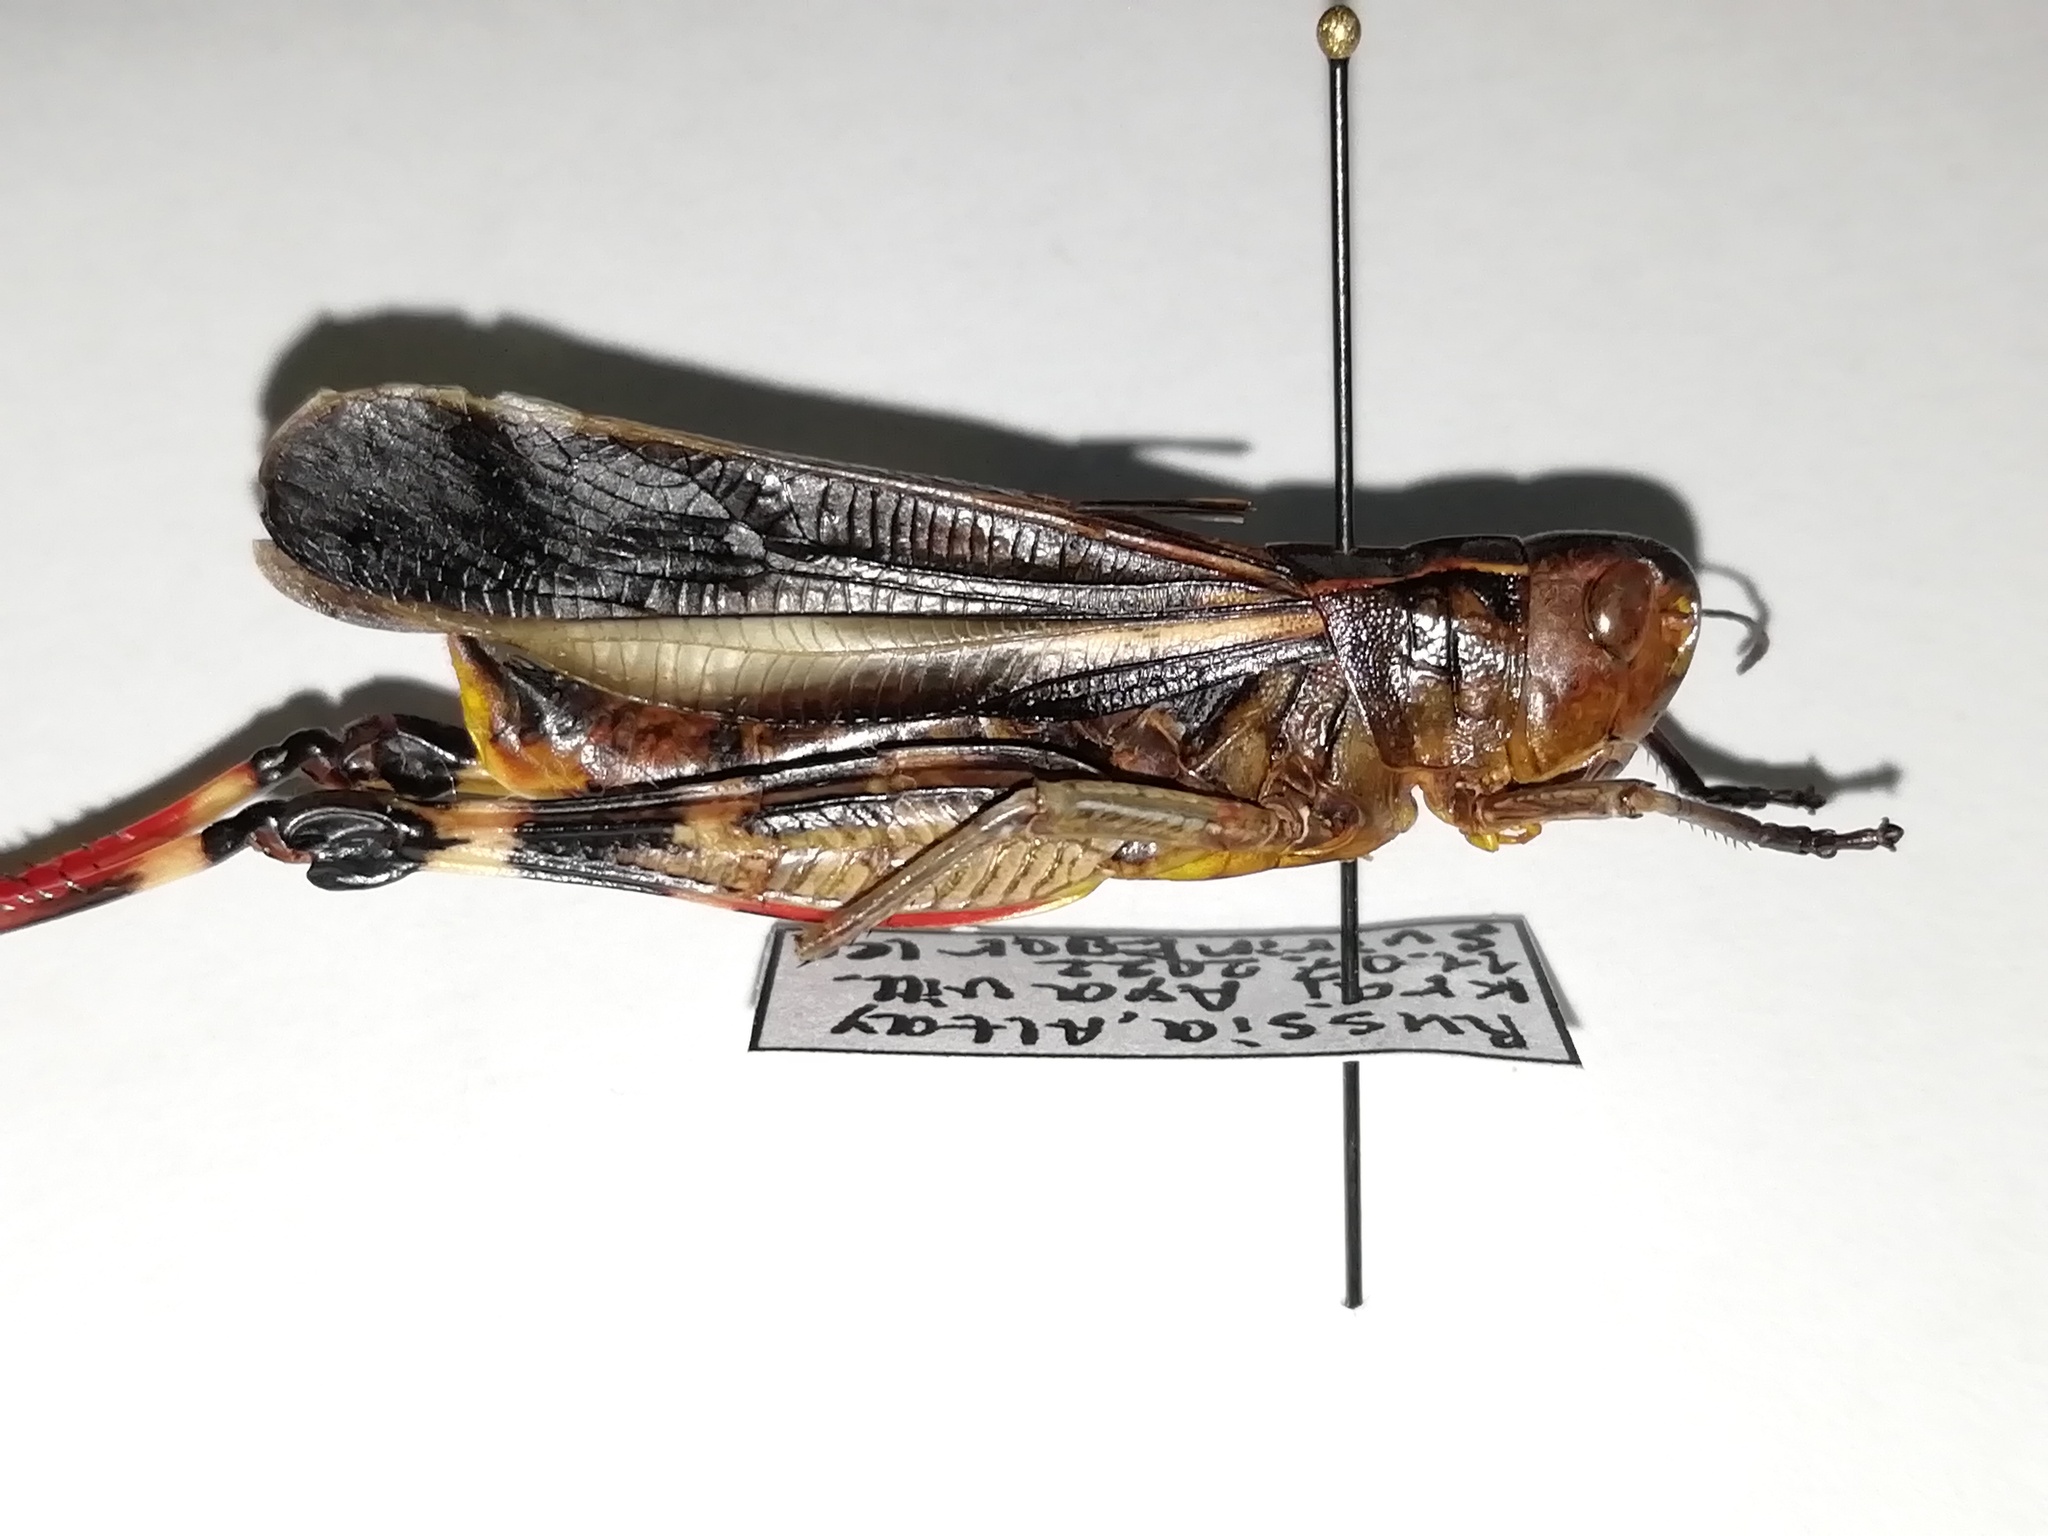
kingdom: Animalia
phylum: Arthropoda
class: Insecta
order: Orthoptera
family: Acrididae
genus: Arcyptera
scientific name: Arcyptera fusca
